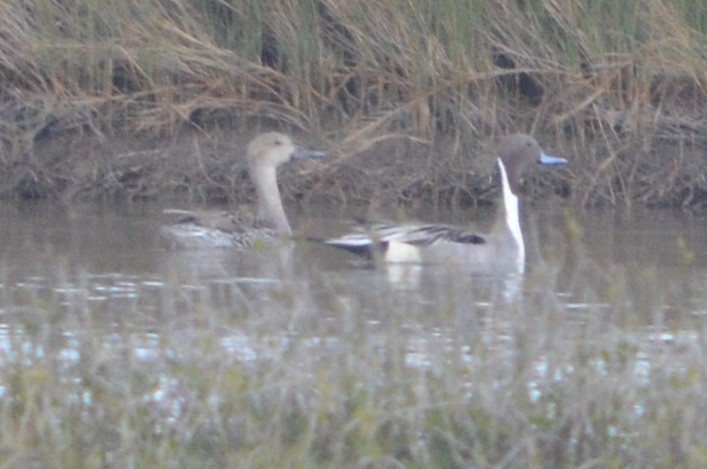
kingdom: Animalia
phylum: Chordata
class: Aves
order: Anseriformes
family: Anatidae
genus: Anas
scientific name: Anas acuta
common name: Northern pintail
